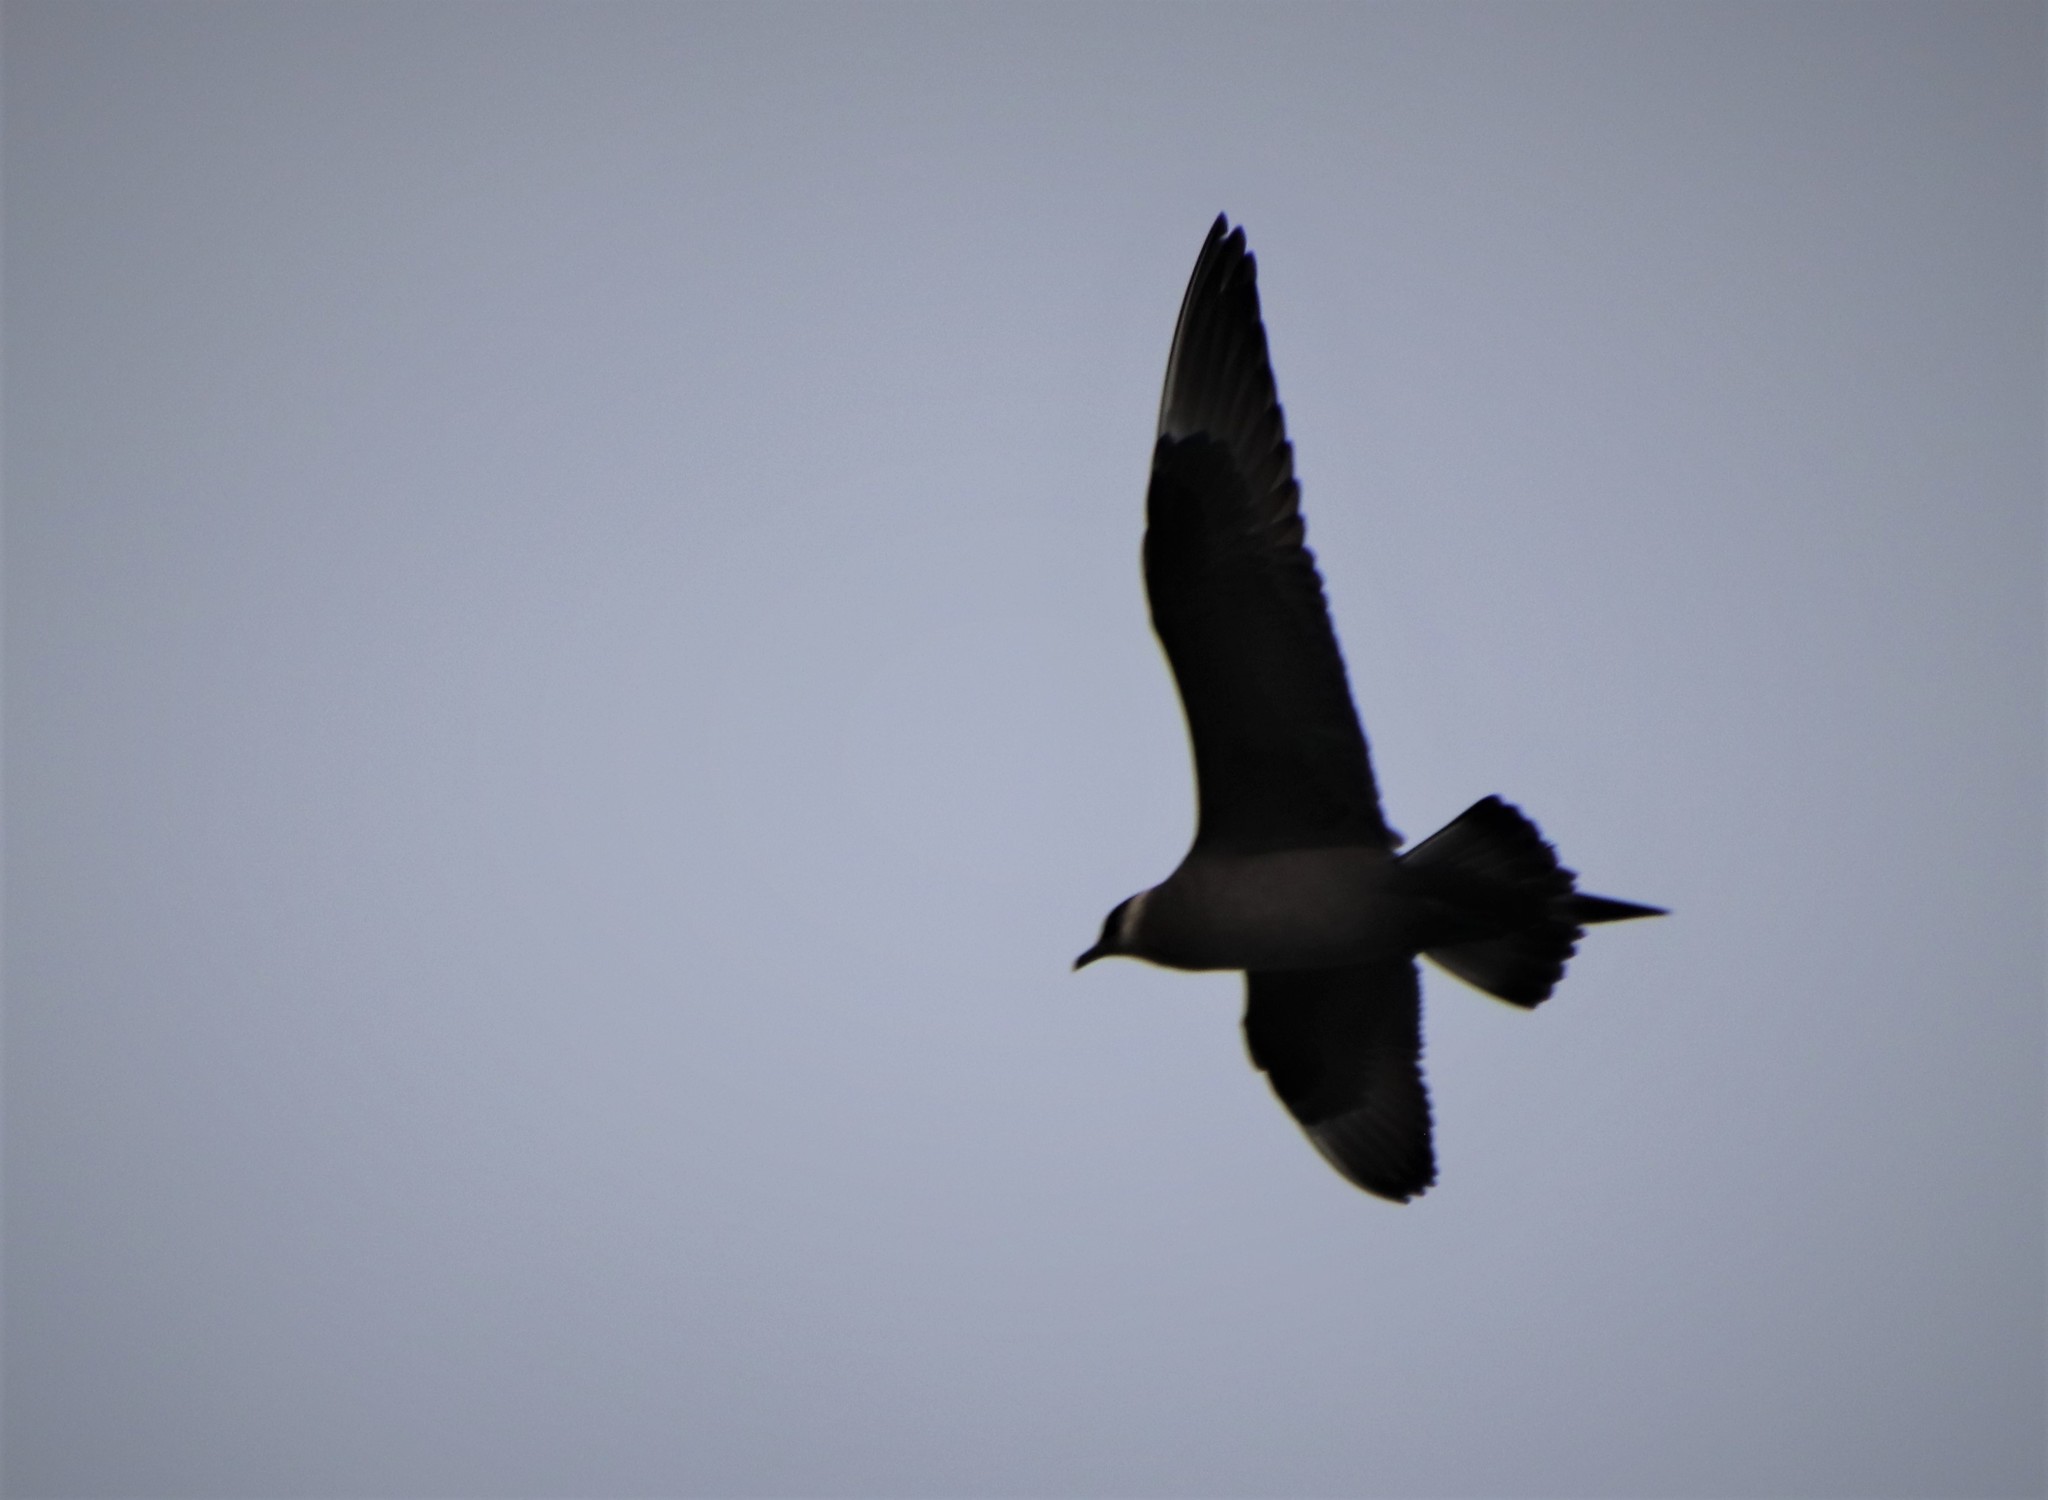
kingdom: Animalia
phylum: Chordata
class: Aves
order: Charadriiformes
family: Stercorariidae
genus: Stercorarius
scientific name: Stercorarius parasiticus
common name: Parasitic jaeger
